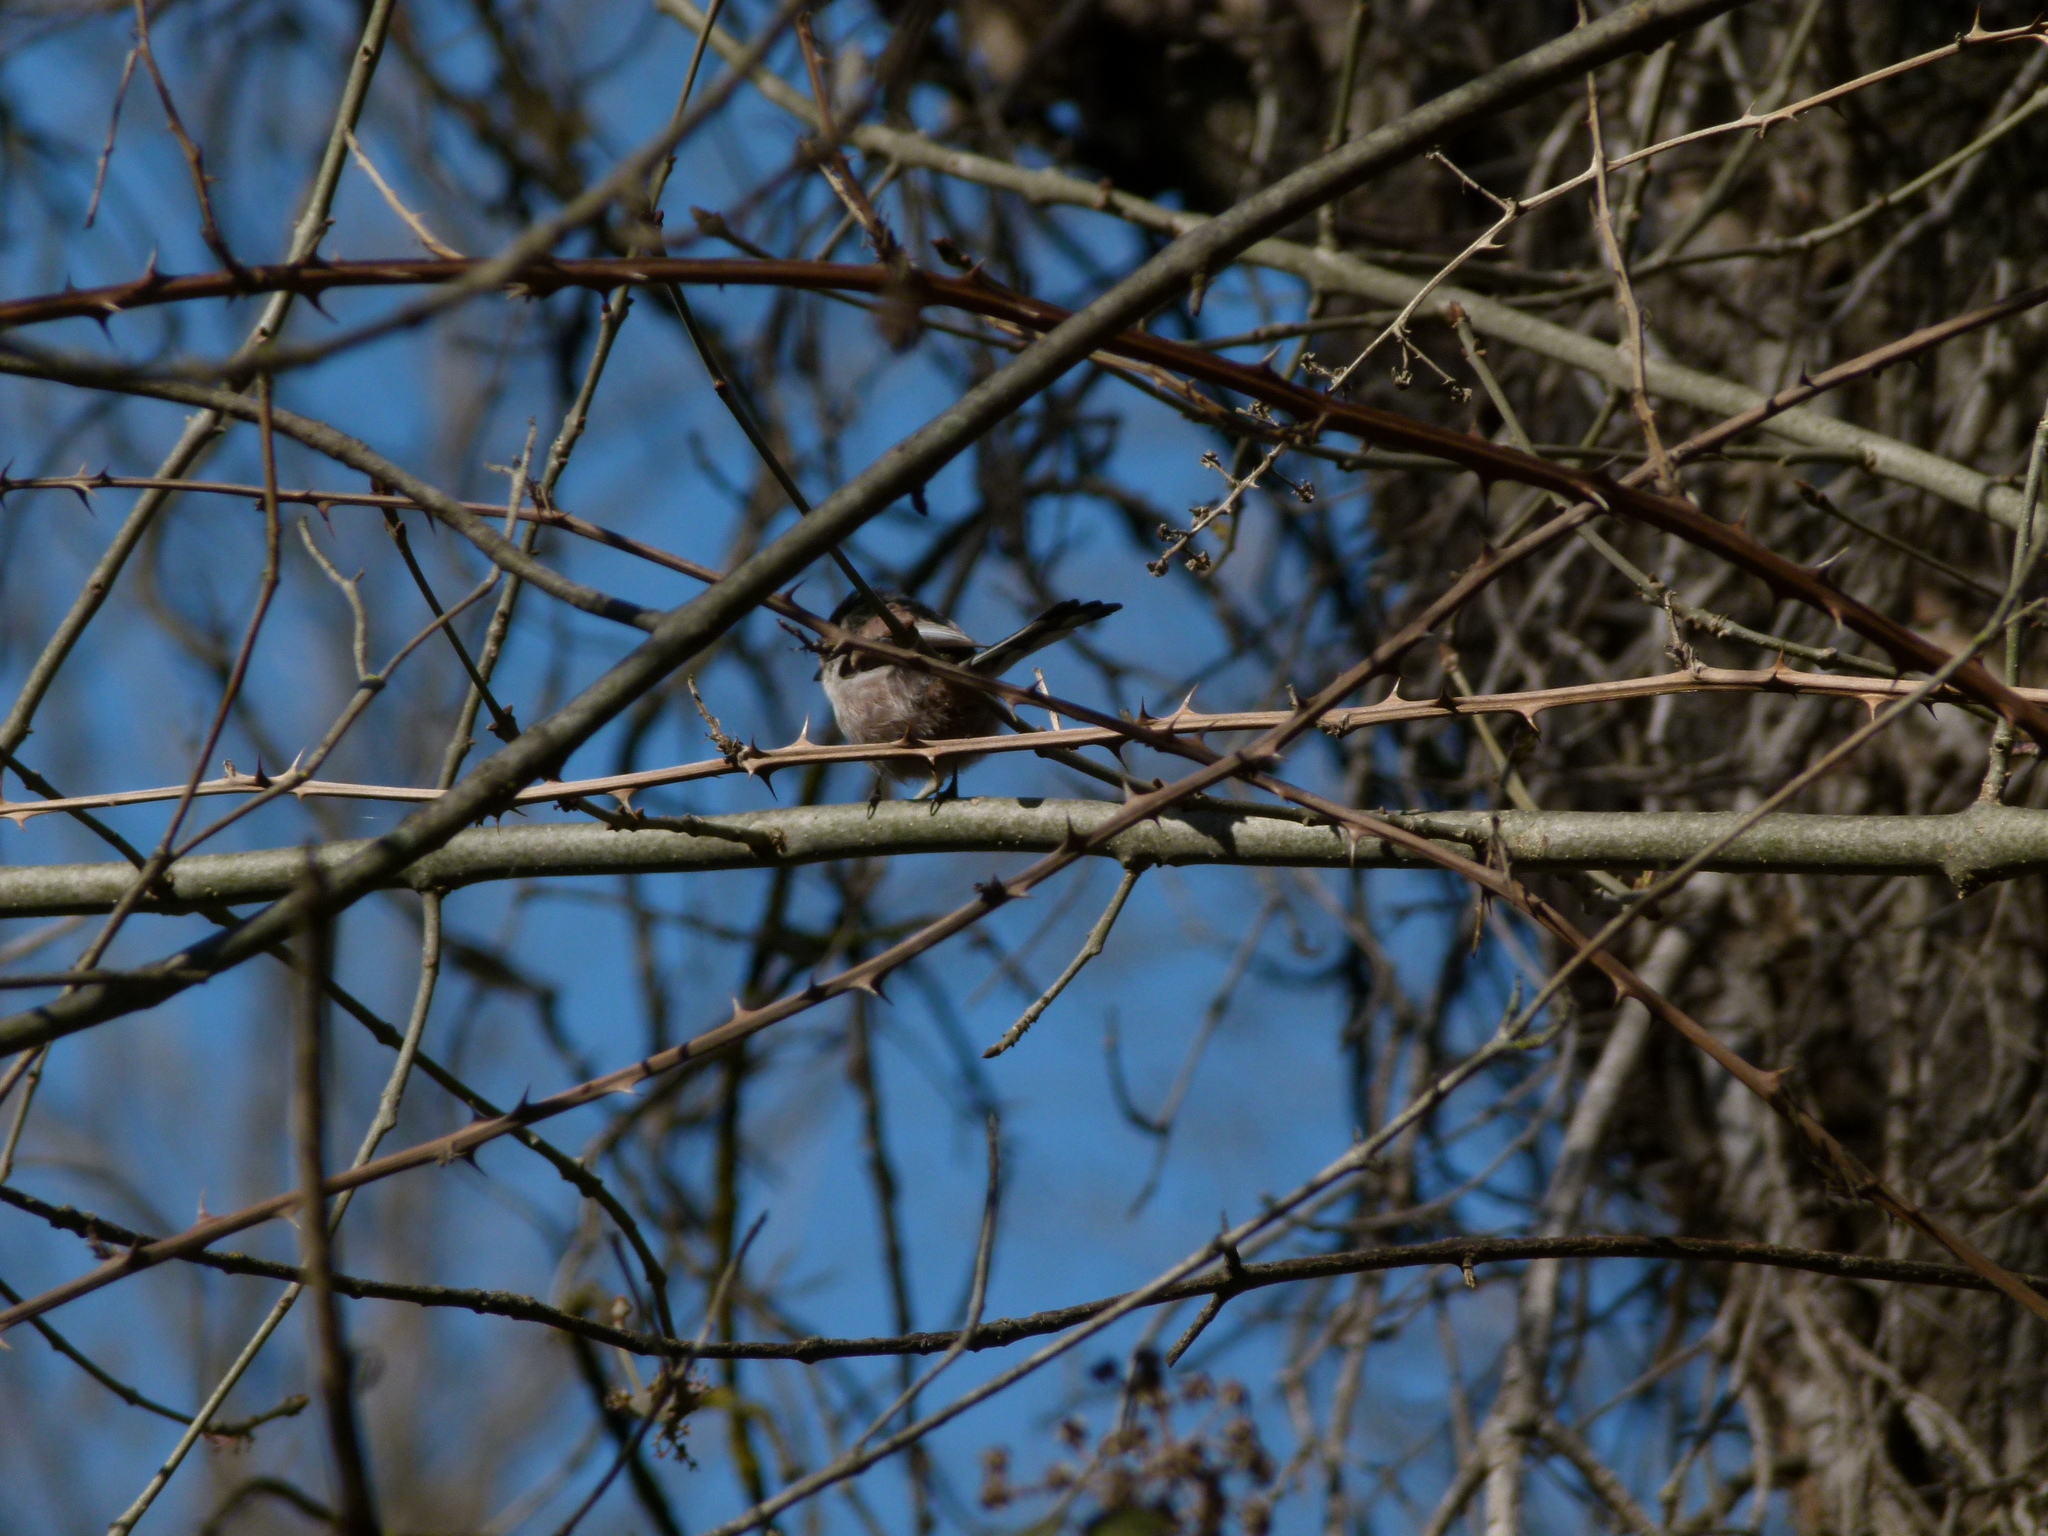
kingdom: Animalia
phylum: Chordata
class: Aves
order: Passeriformes
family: Aegithalidae
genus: Aegithalos
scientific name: Aegithalos caudatus
